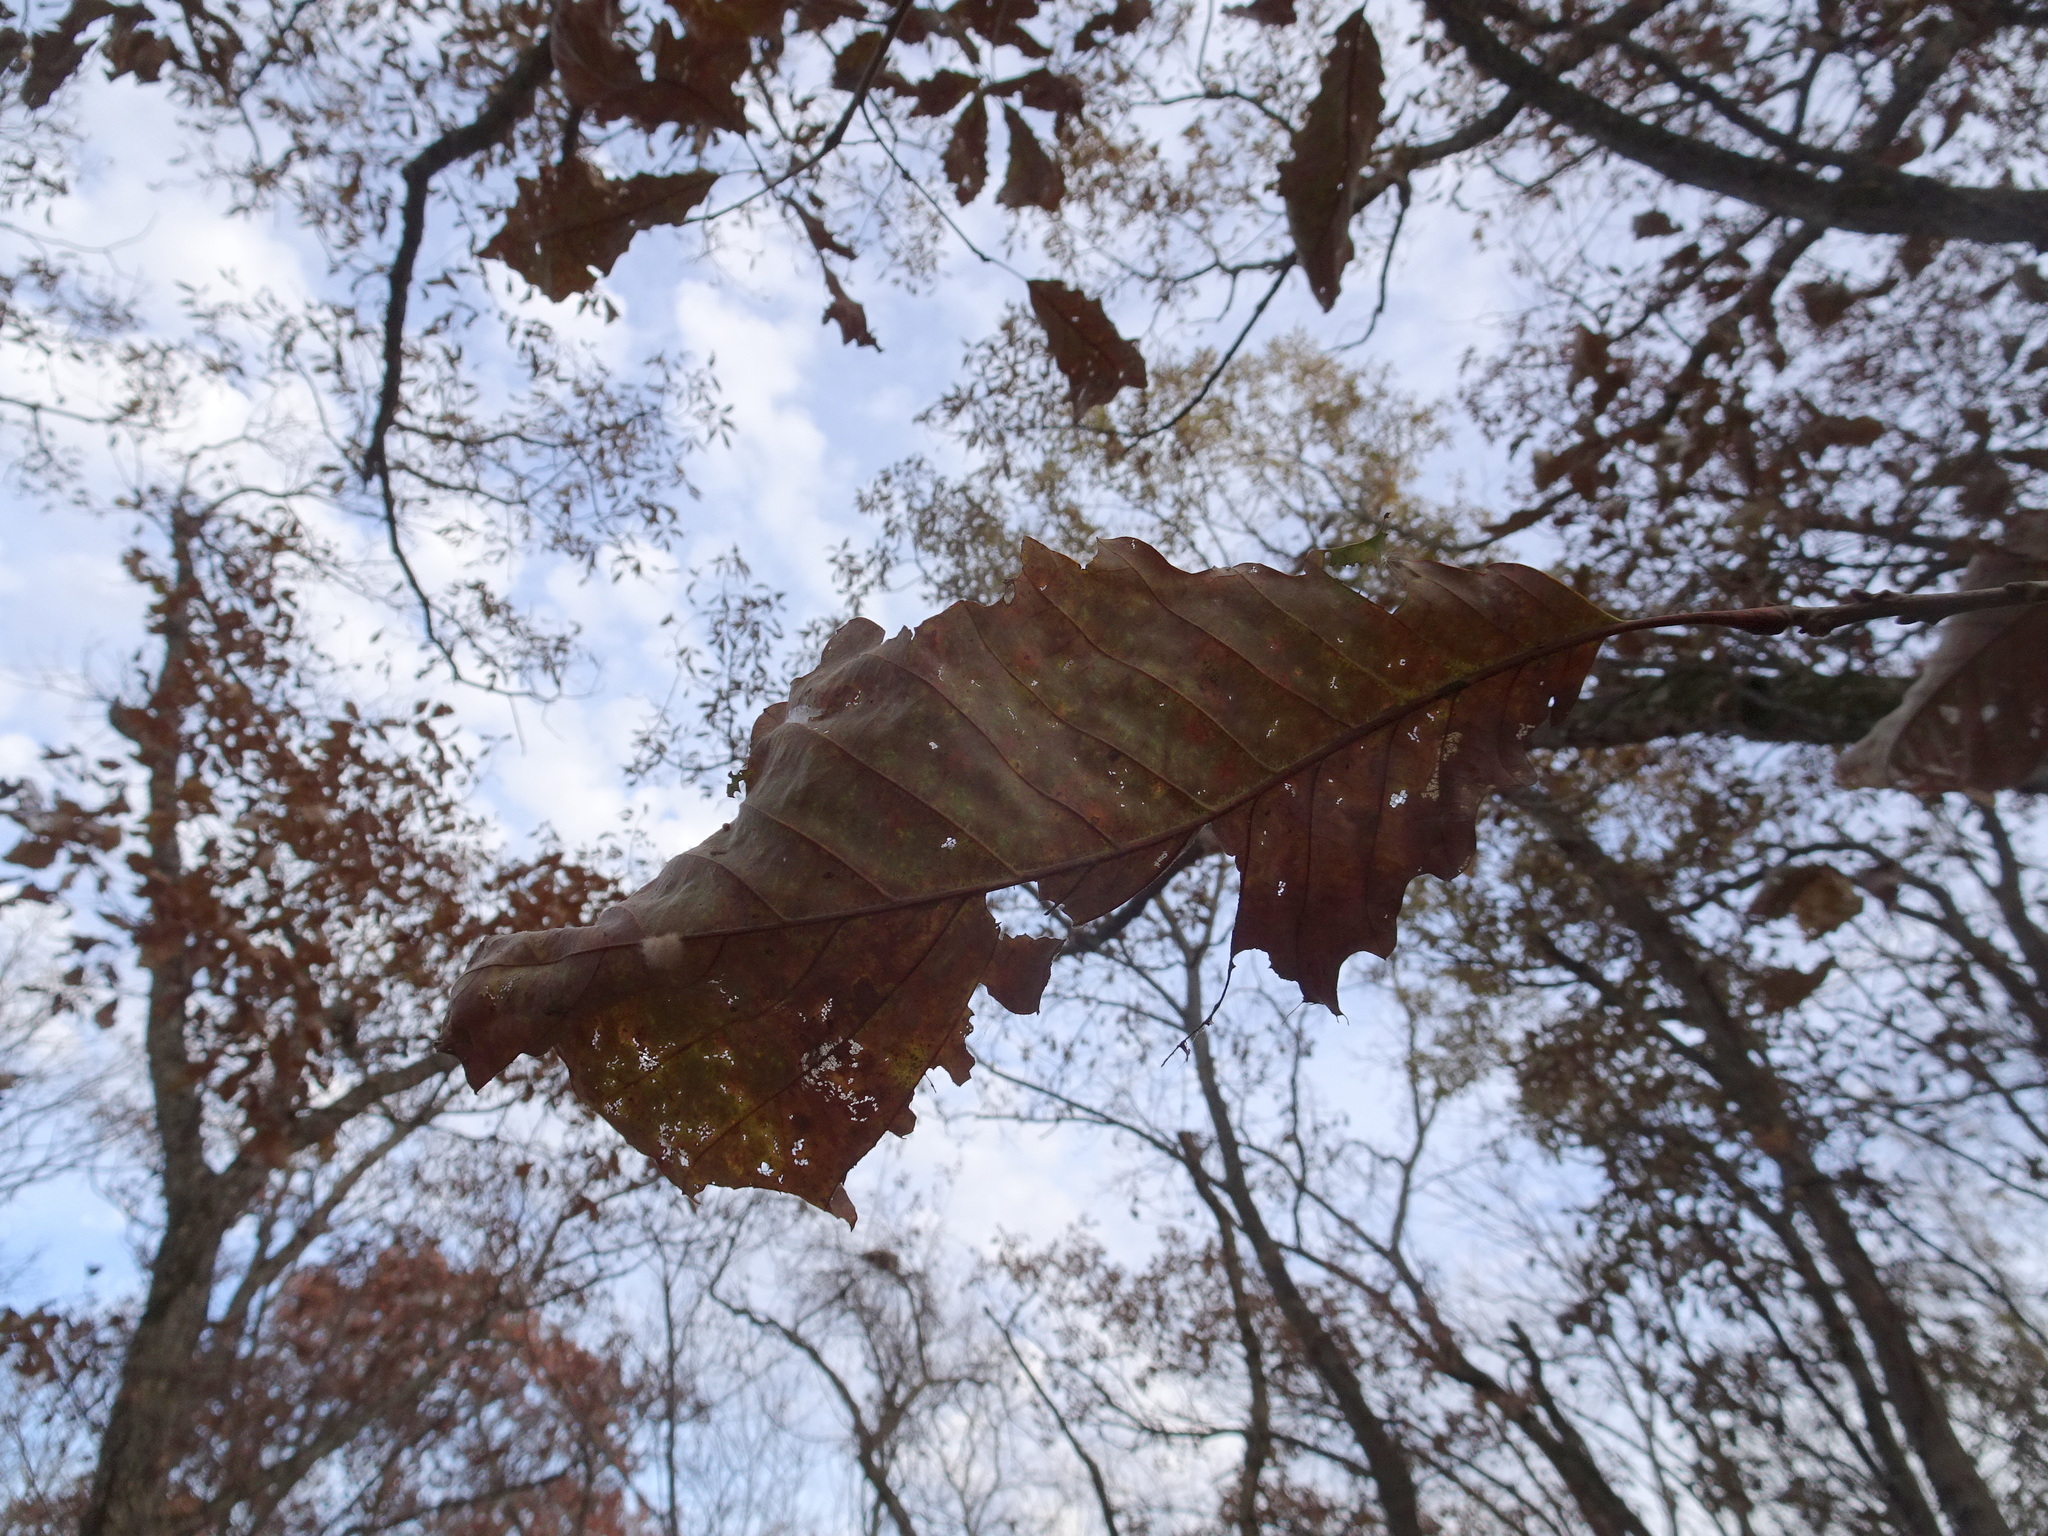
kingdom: Plantae
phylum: Tracheophyta
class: Magnoliopsida
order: Fagales
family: Fagaceae
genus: Quercus
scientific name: Quercus muehlenbergii
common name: Chinkapin oak
